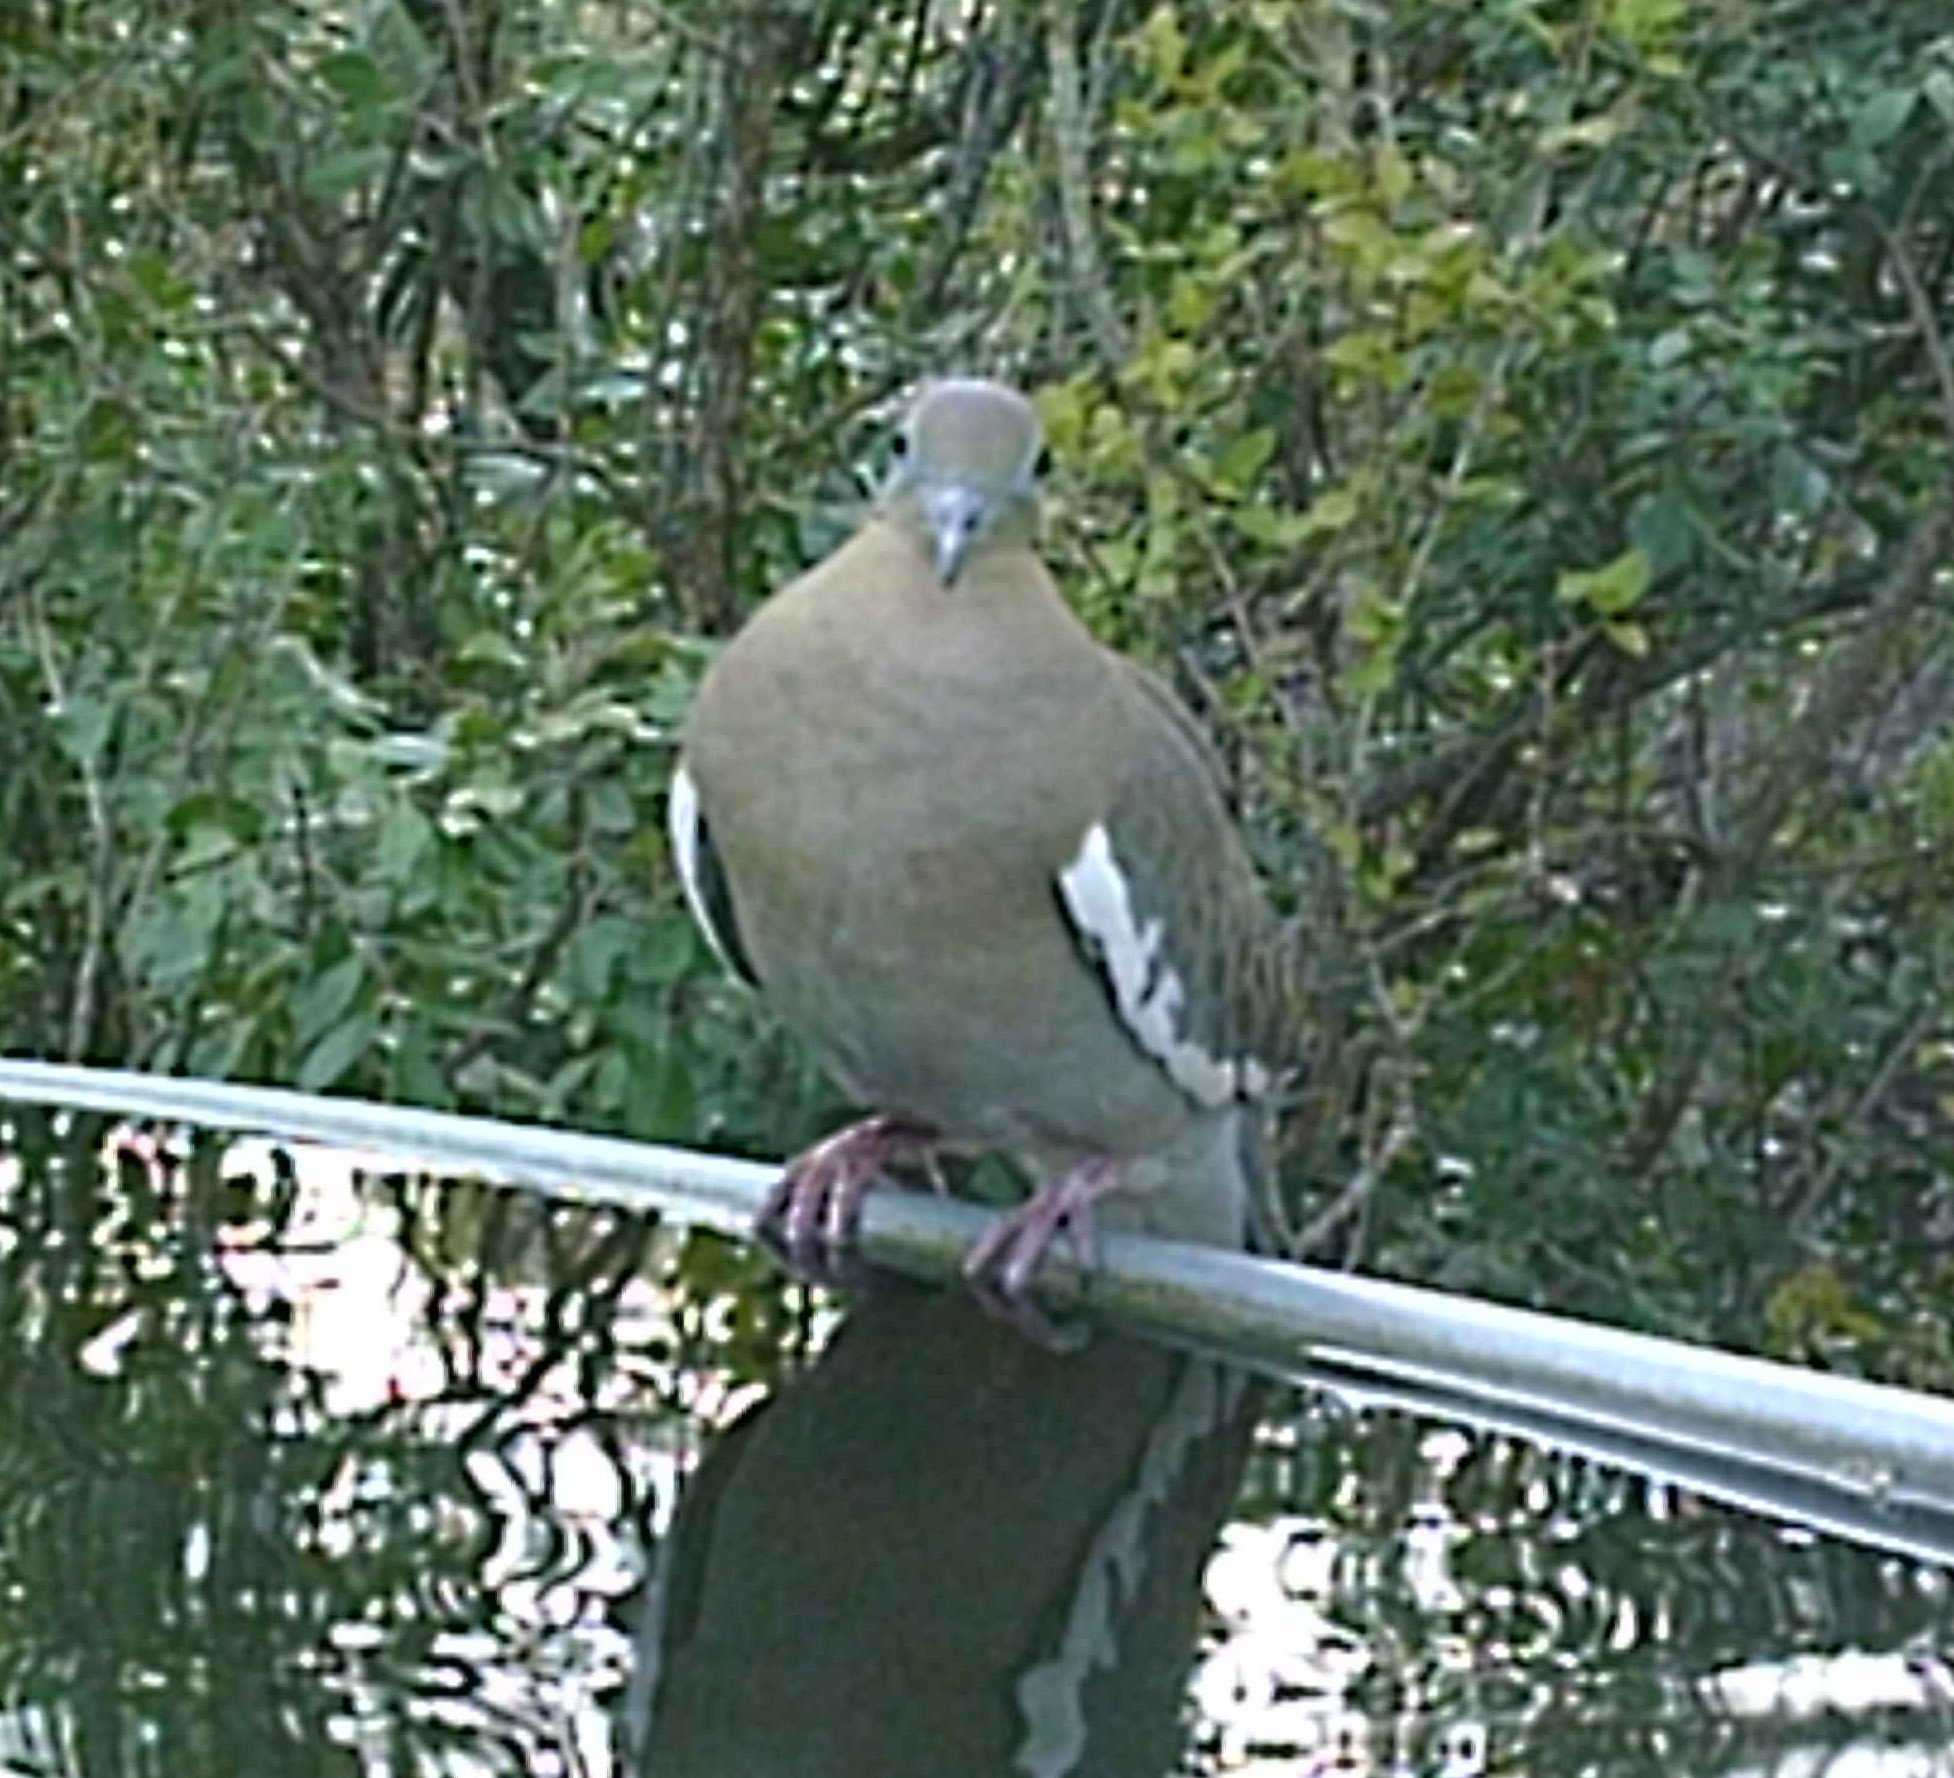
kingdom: Animalia
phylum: Chordata
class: Aves
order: Columbiformes
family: Columbidae
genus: Zenaida
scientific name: Zenaida asiatica
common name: White-winged dove
